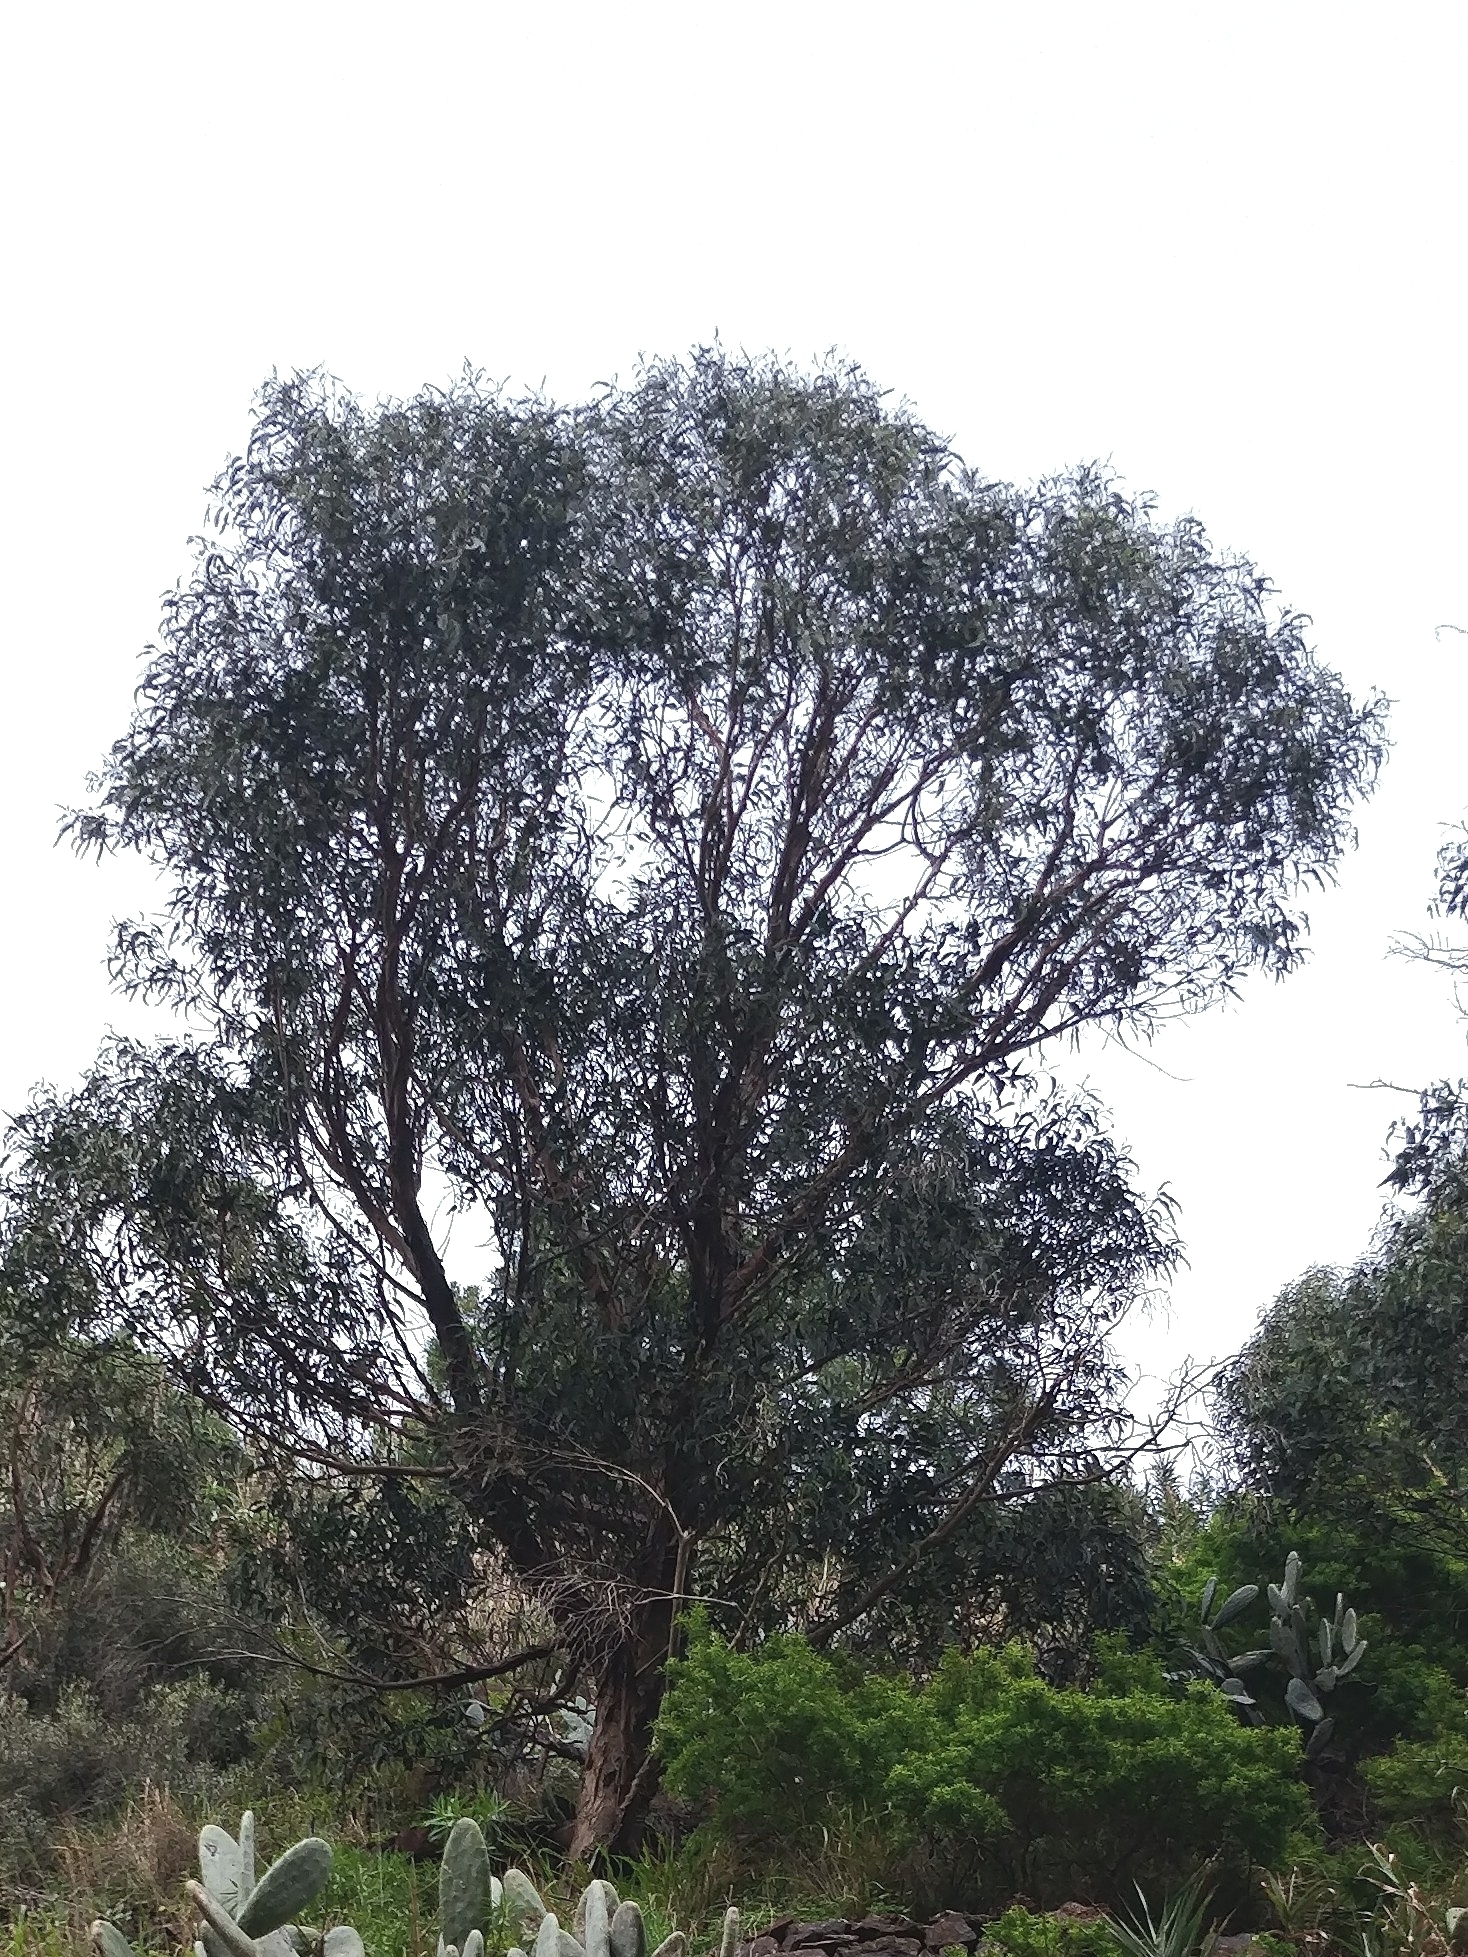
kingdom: Plantae
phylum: Tracheophyta
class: Magnoliopsida
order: Myrtales
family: Myrtaceae
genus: Eucalyptus
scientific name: Eucalyptus globulus
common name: Southern blue-gum
